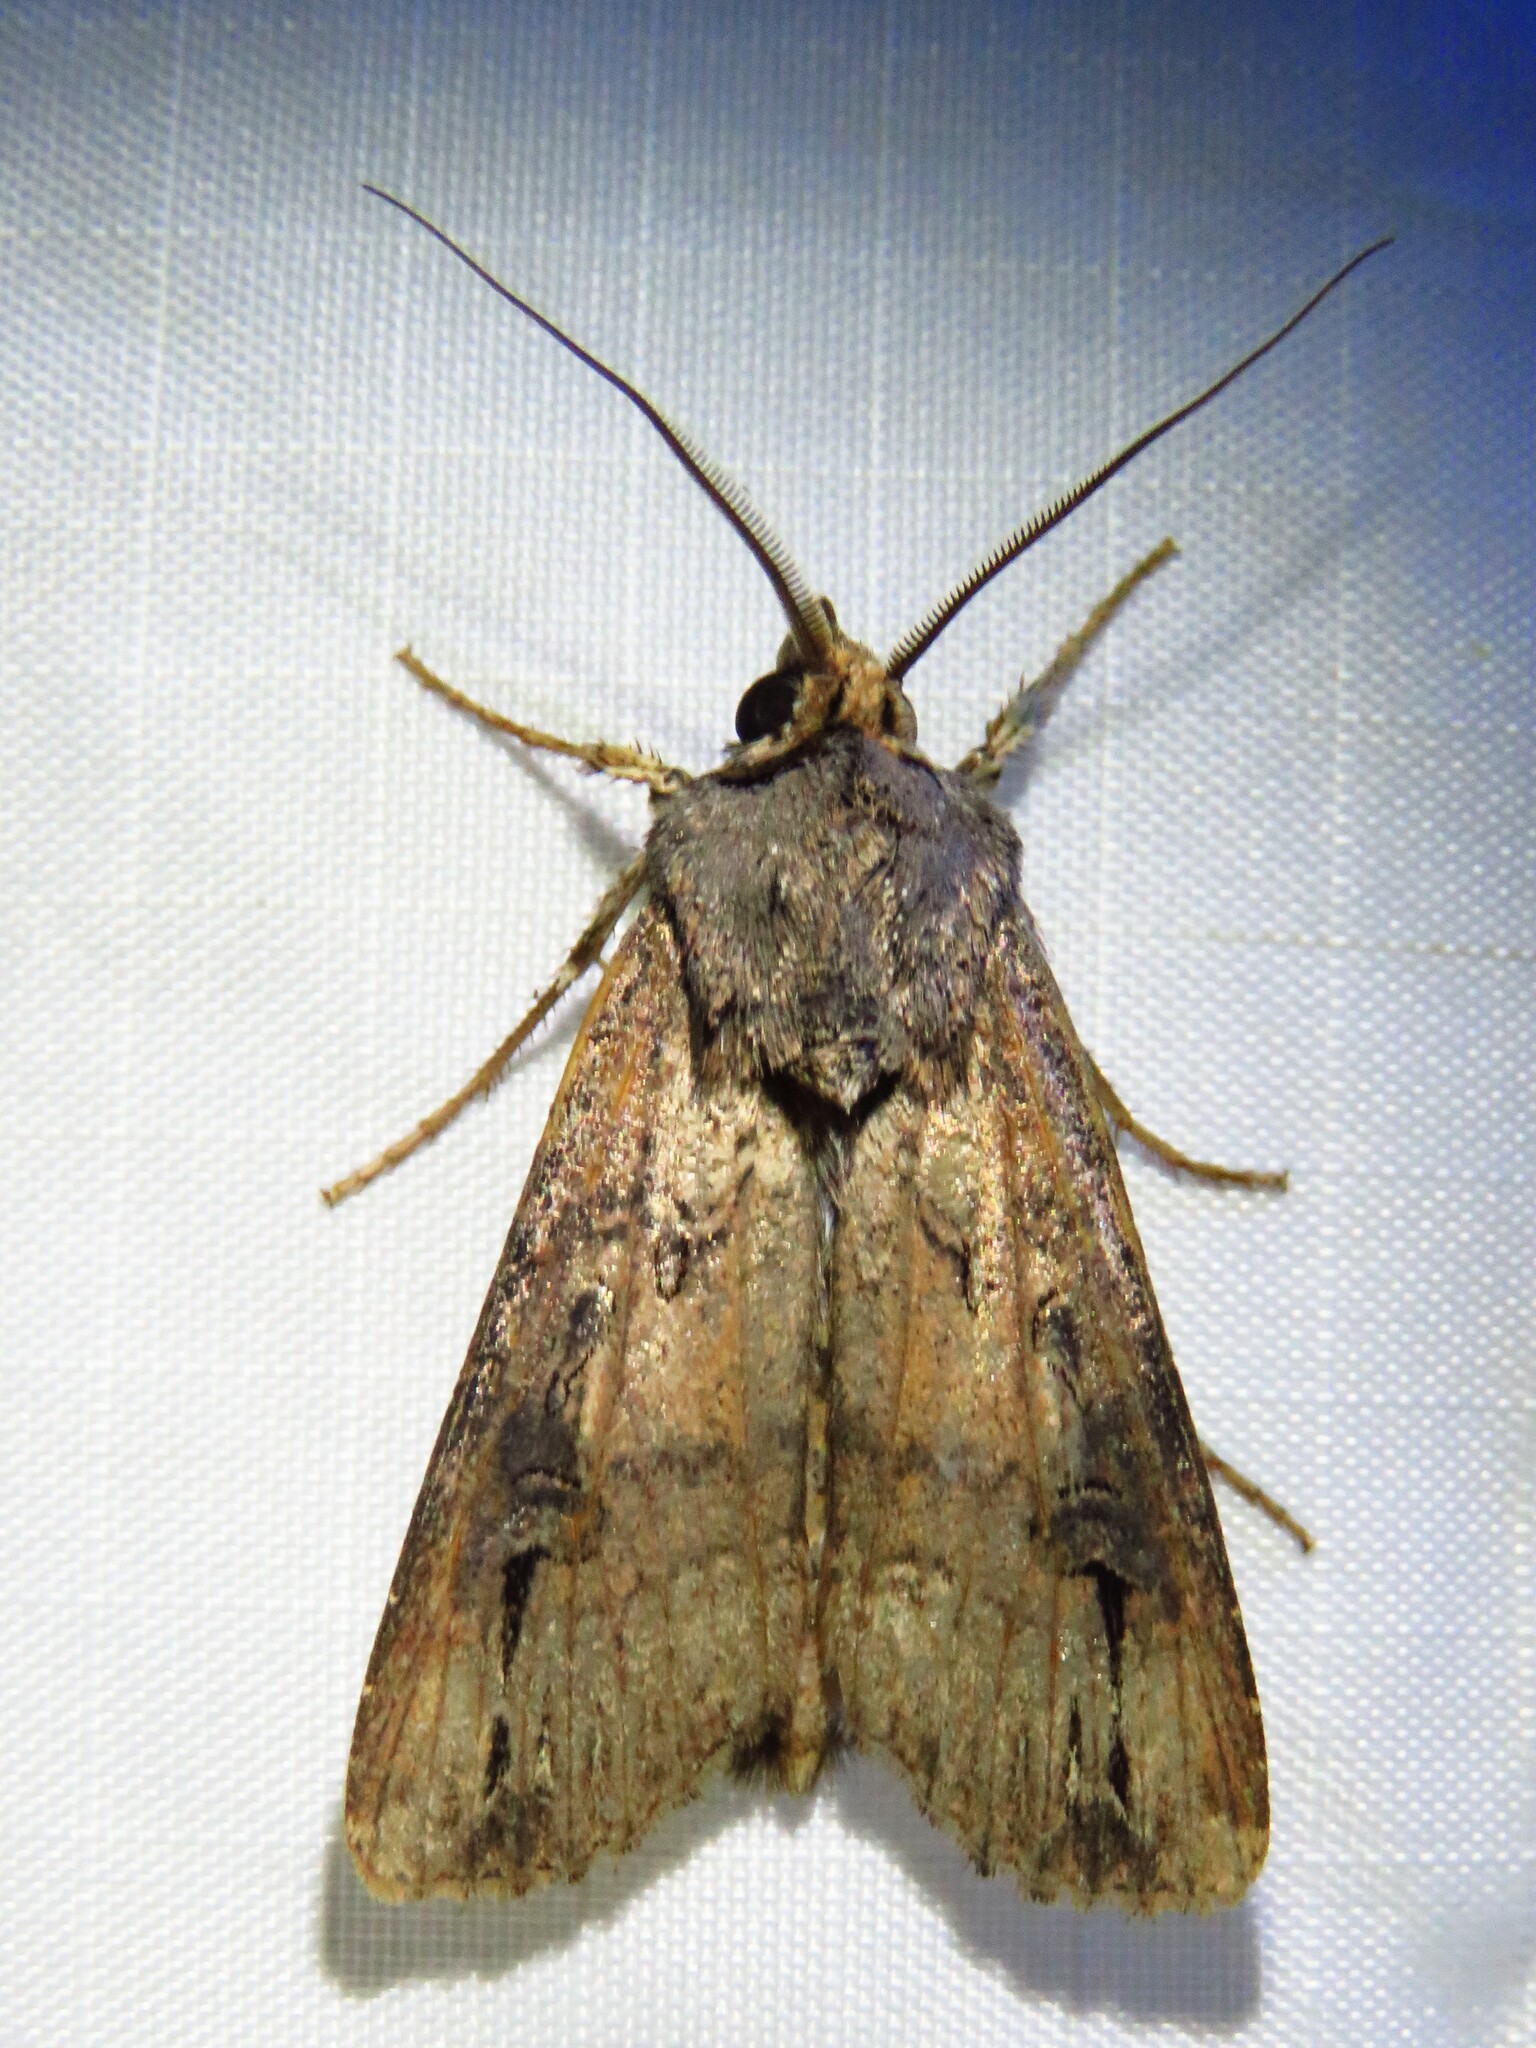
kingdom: Animalia
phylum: Arthropoda
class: Insecta
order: Lepidoptera
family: Noctuidae
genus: Agrotis
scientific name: Agrotis ipsilon
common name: Dark sword-grass
